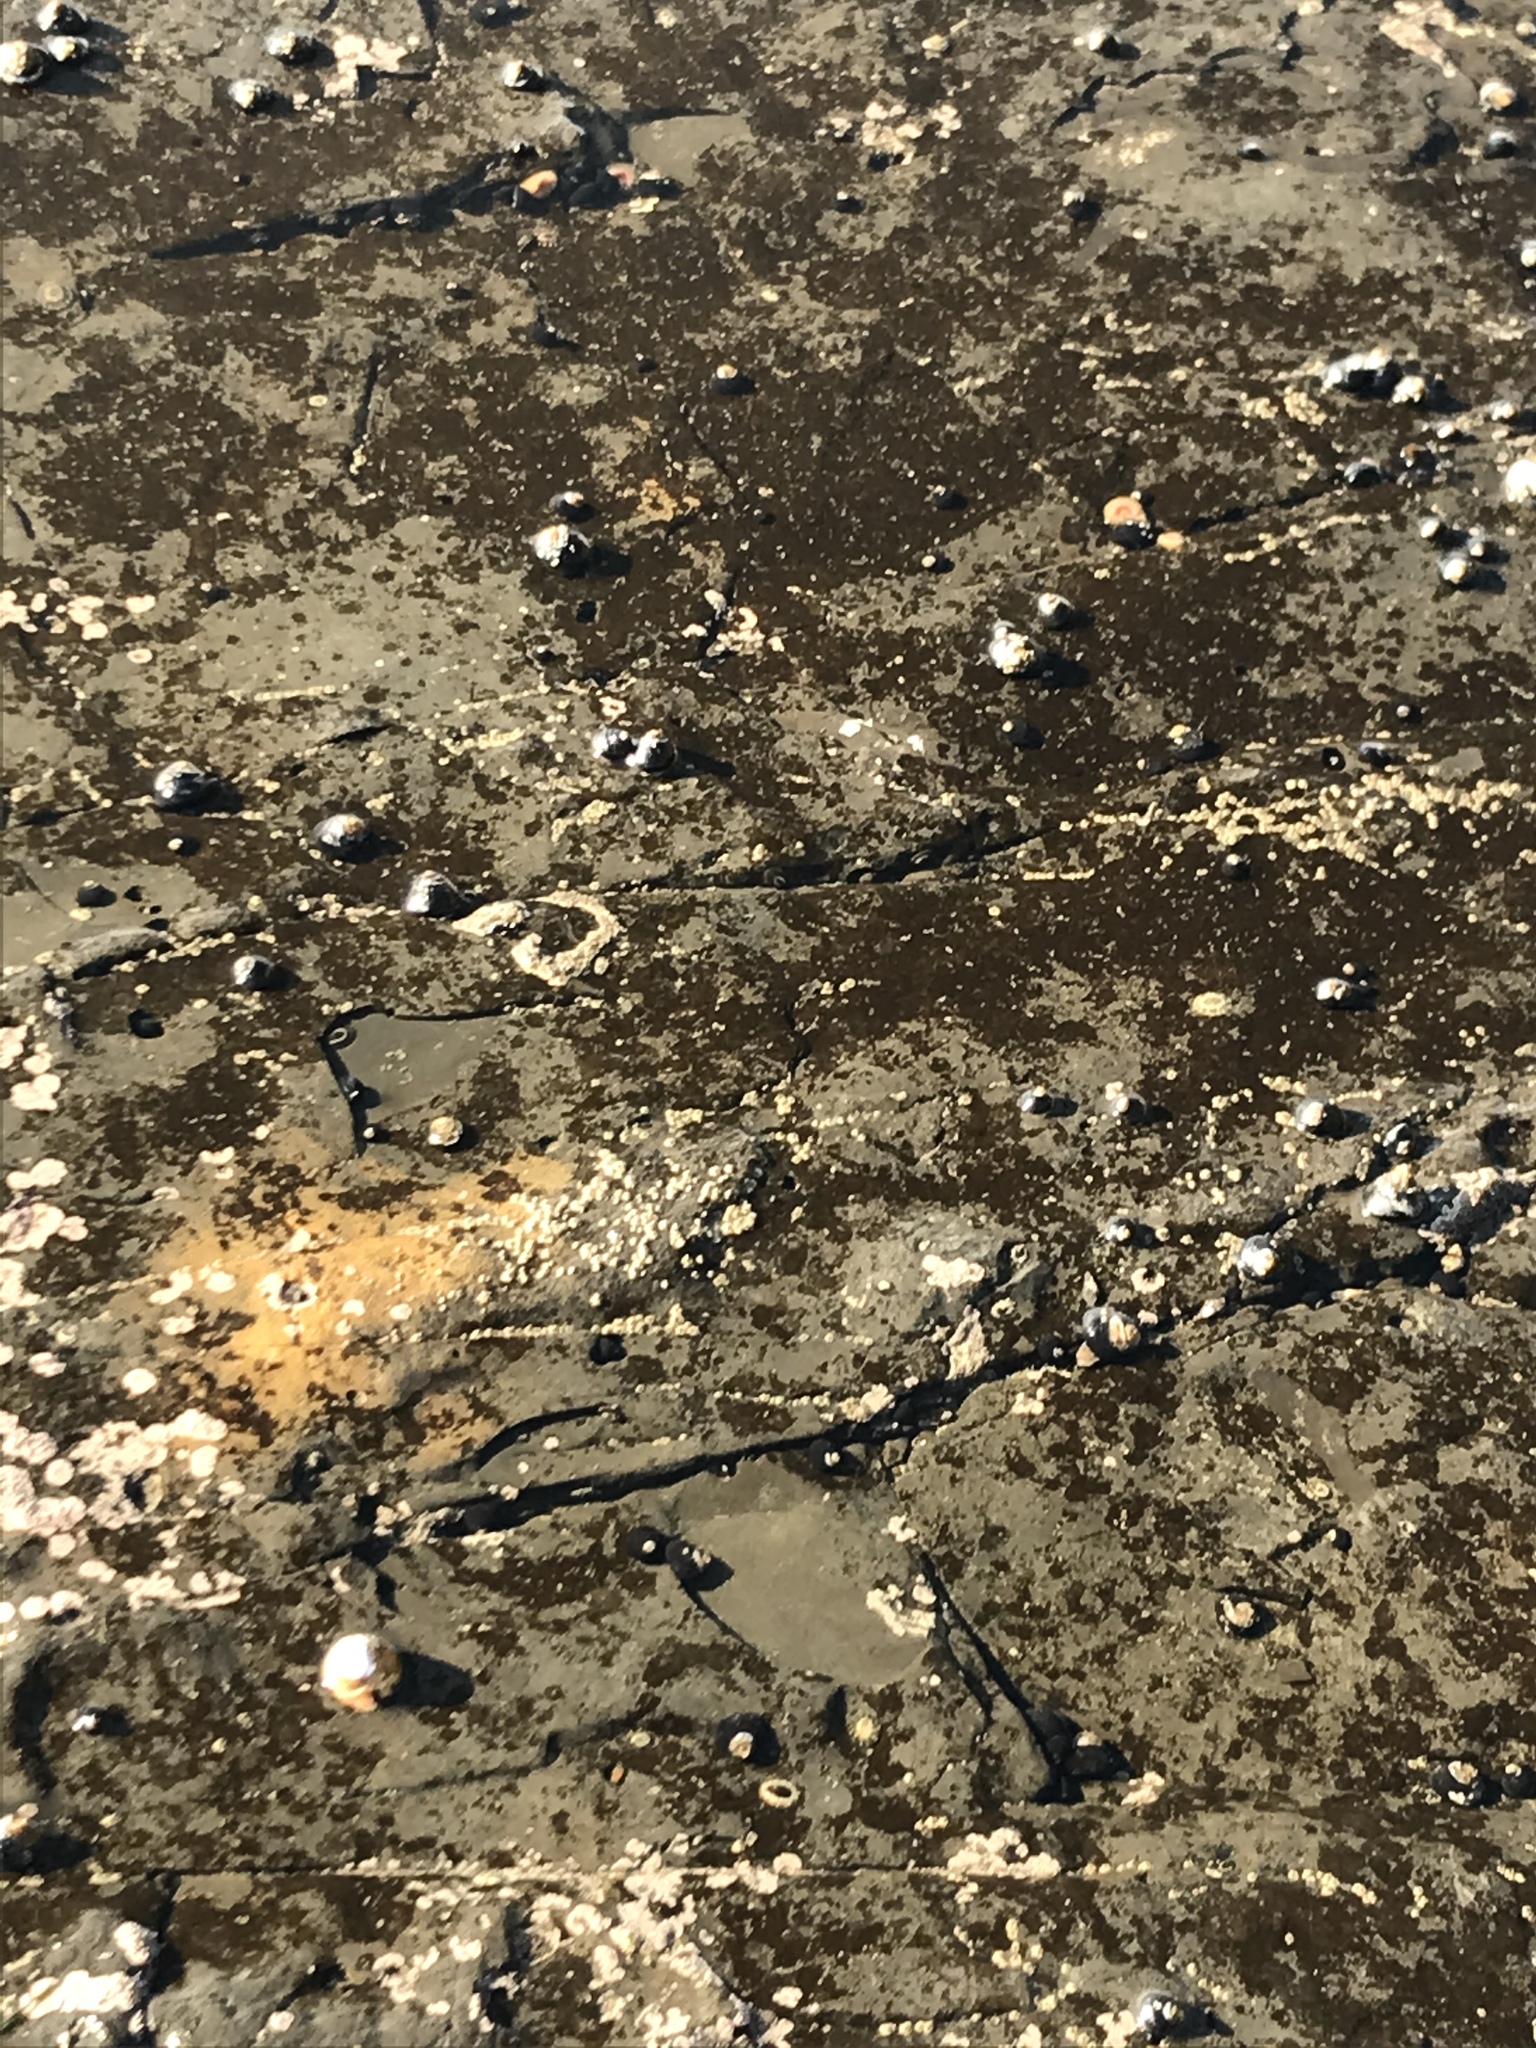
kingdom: Animalia
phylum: Mollusca
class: Gastropoda
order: Trochida
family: Tegulidae
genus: Tegula
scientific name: Tegula funebralis
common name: Black tegula
